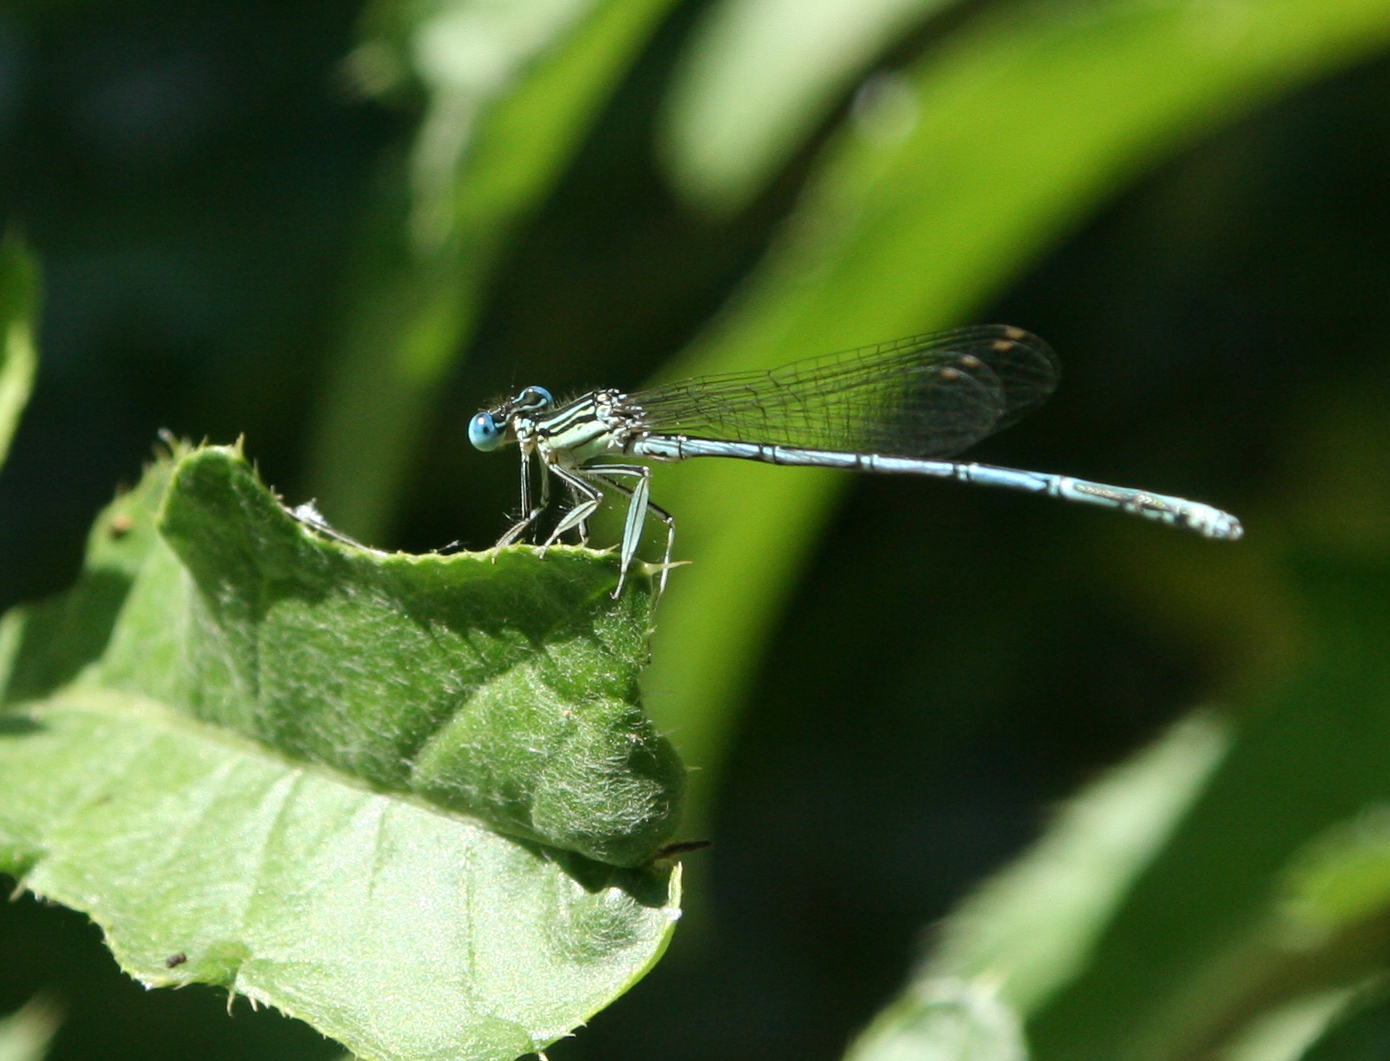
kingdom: Animalia
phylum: Arthropoda
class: Insecta
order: Odonata
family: Platycnemididae
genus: Platycnemis
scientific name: Platycnemis pennipes
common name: White-legged damselfly
